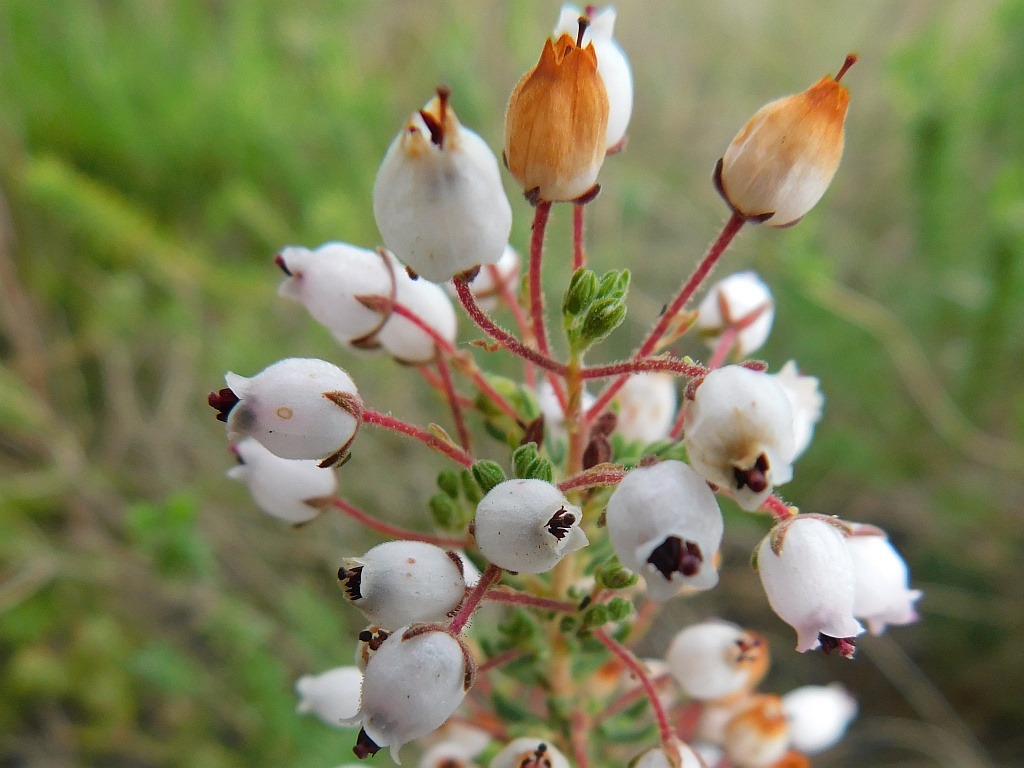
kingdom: Plantae
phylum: Tracheophyta
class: Magnoliopsida
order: Ericales
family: Ericaceae
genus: Erica
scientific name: Erica hirta
